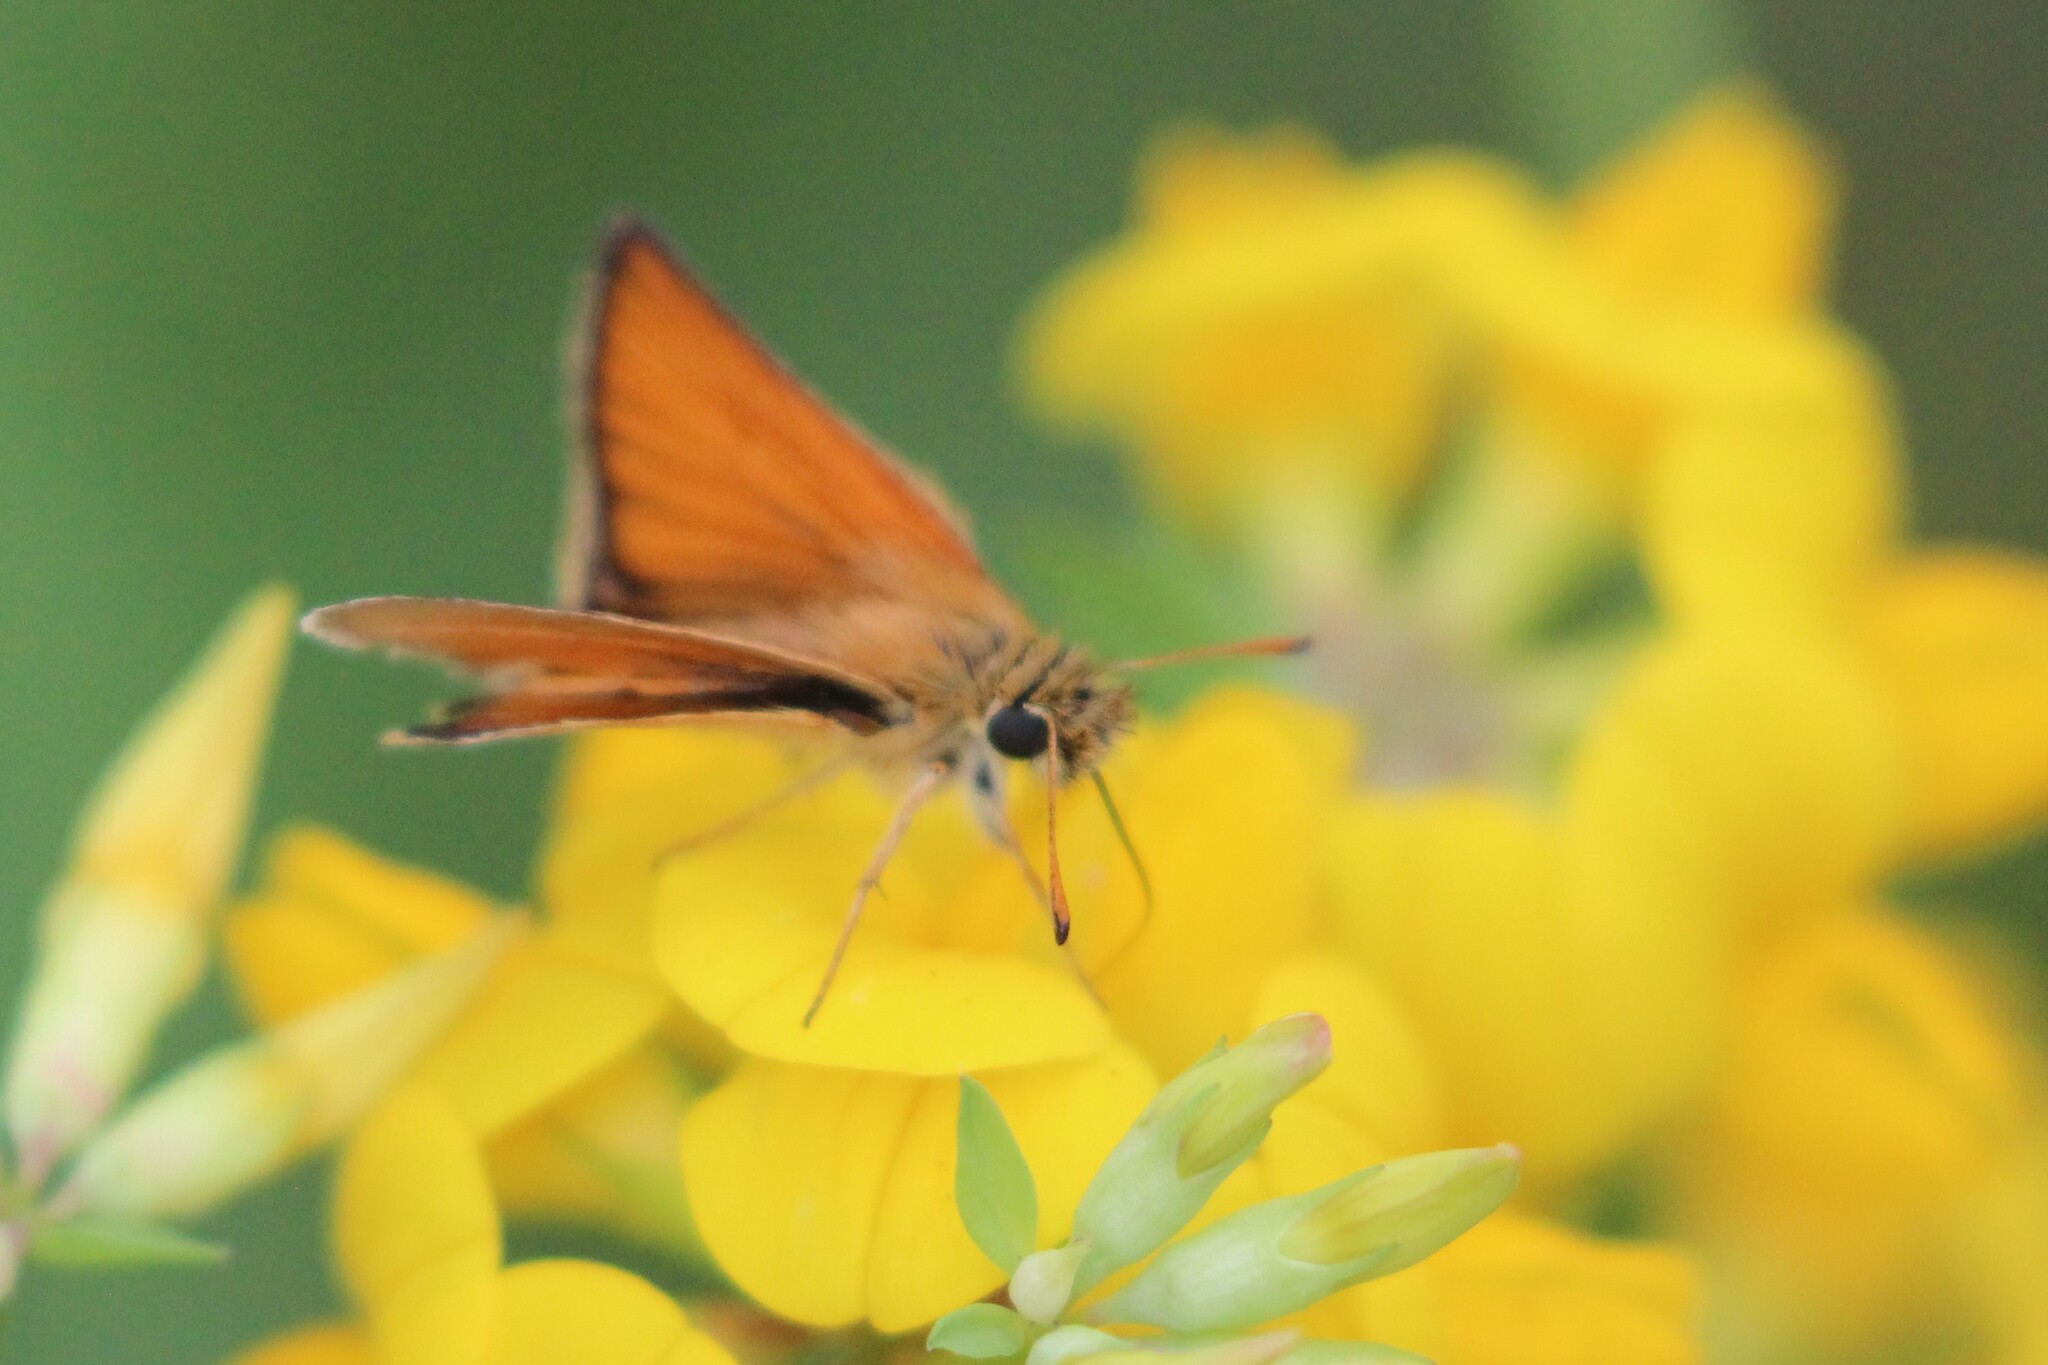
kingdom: Animalia
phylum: Arthropoda
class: Insecta
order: Lepidoptera
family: Hesperiidae
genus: Thymelicus
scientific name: Thymelicus lineola
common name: Essex skipper
